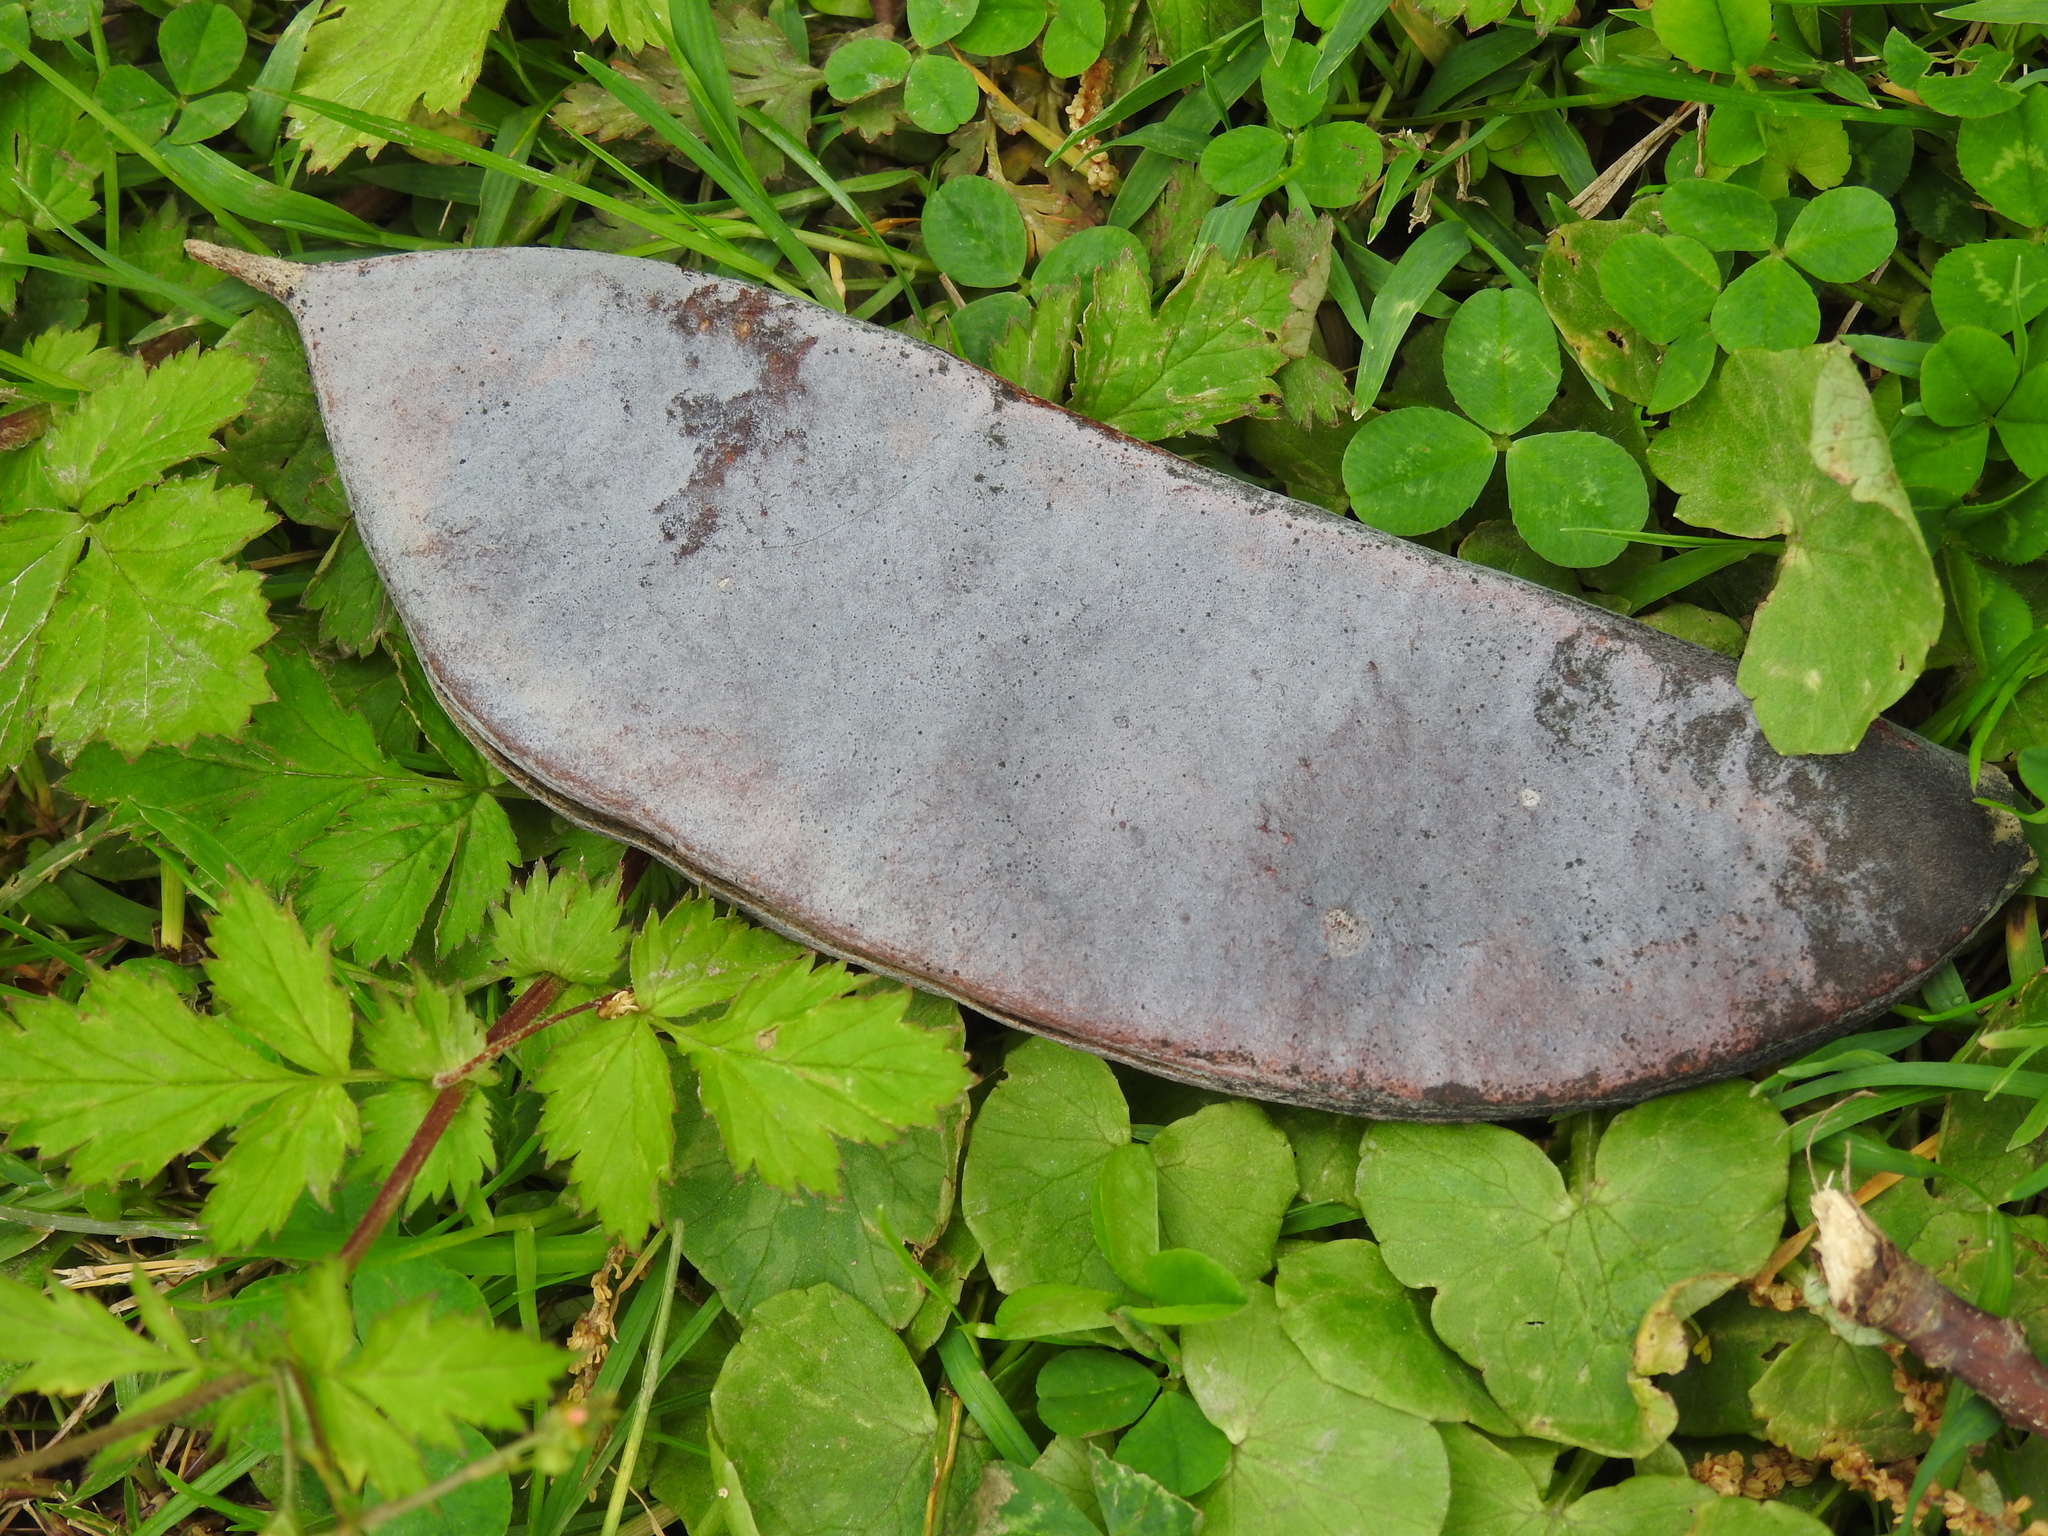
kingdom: Plantae
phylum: Tracheophyta
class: Magnoliopsida
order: Fabales
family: Fabaceae
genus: Gymnocladus
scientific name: Gymnocladus dioicus
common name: Kentucky coffee-tree
